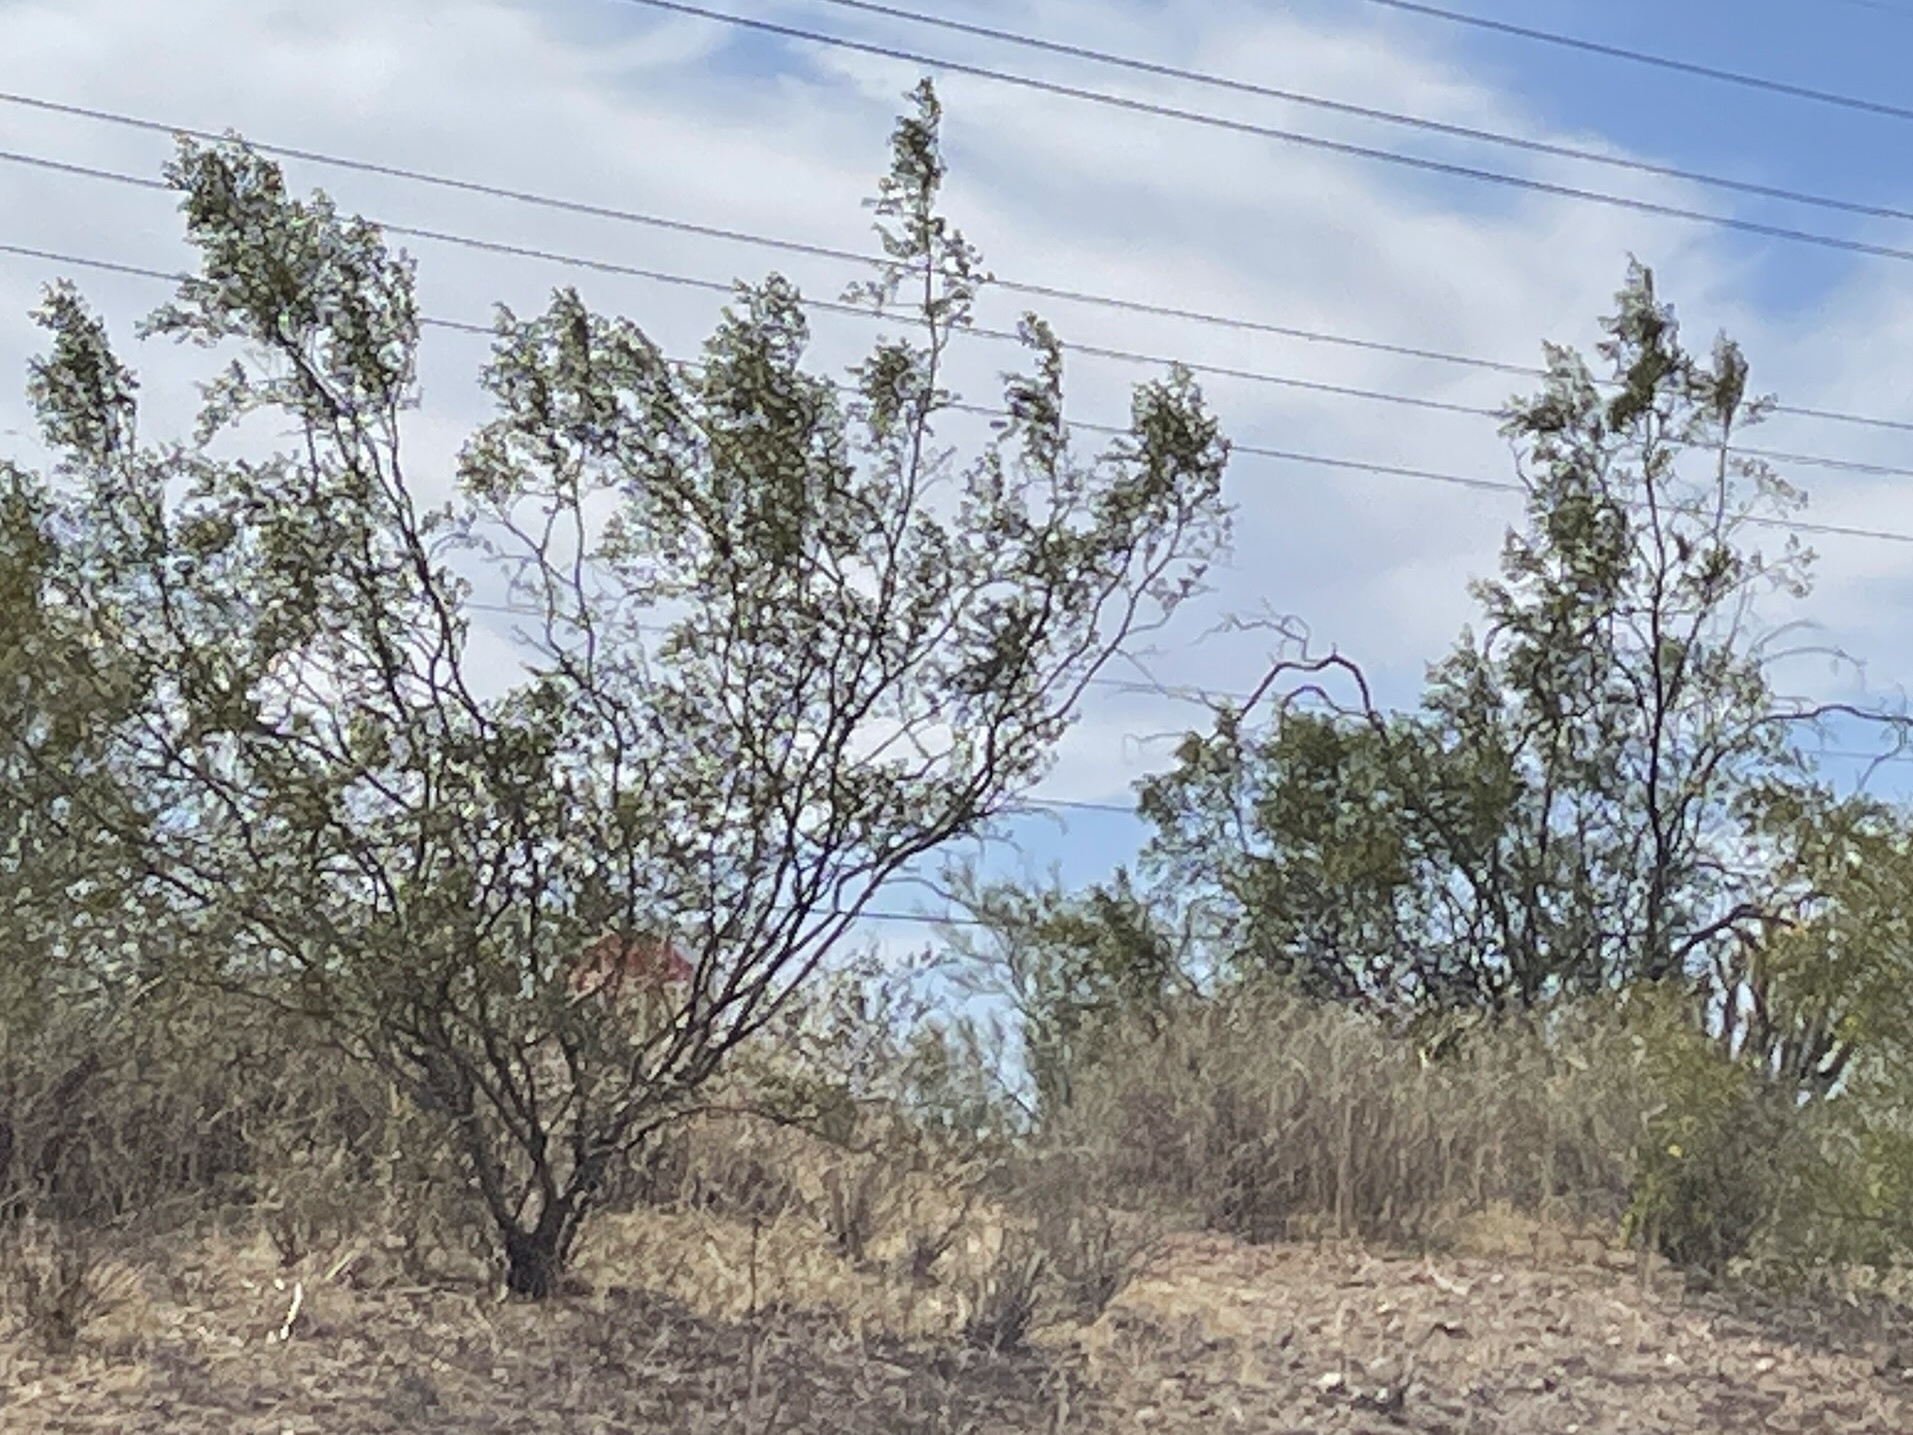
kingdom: Plantae
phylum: Tracheophyta
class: Magnoliopsida
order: Zygophyllales
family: Zygophyllaceae
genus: Larrea
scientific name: Larrea tridentata
